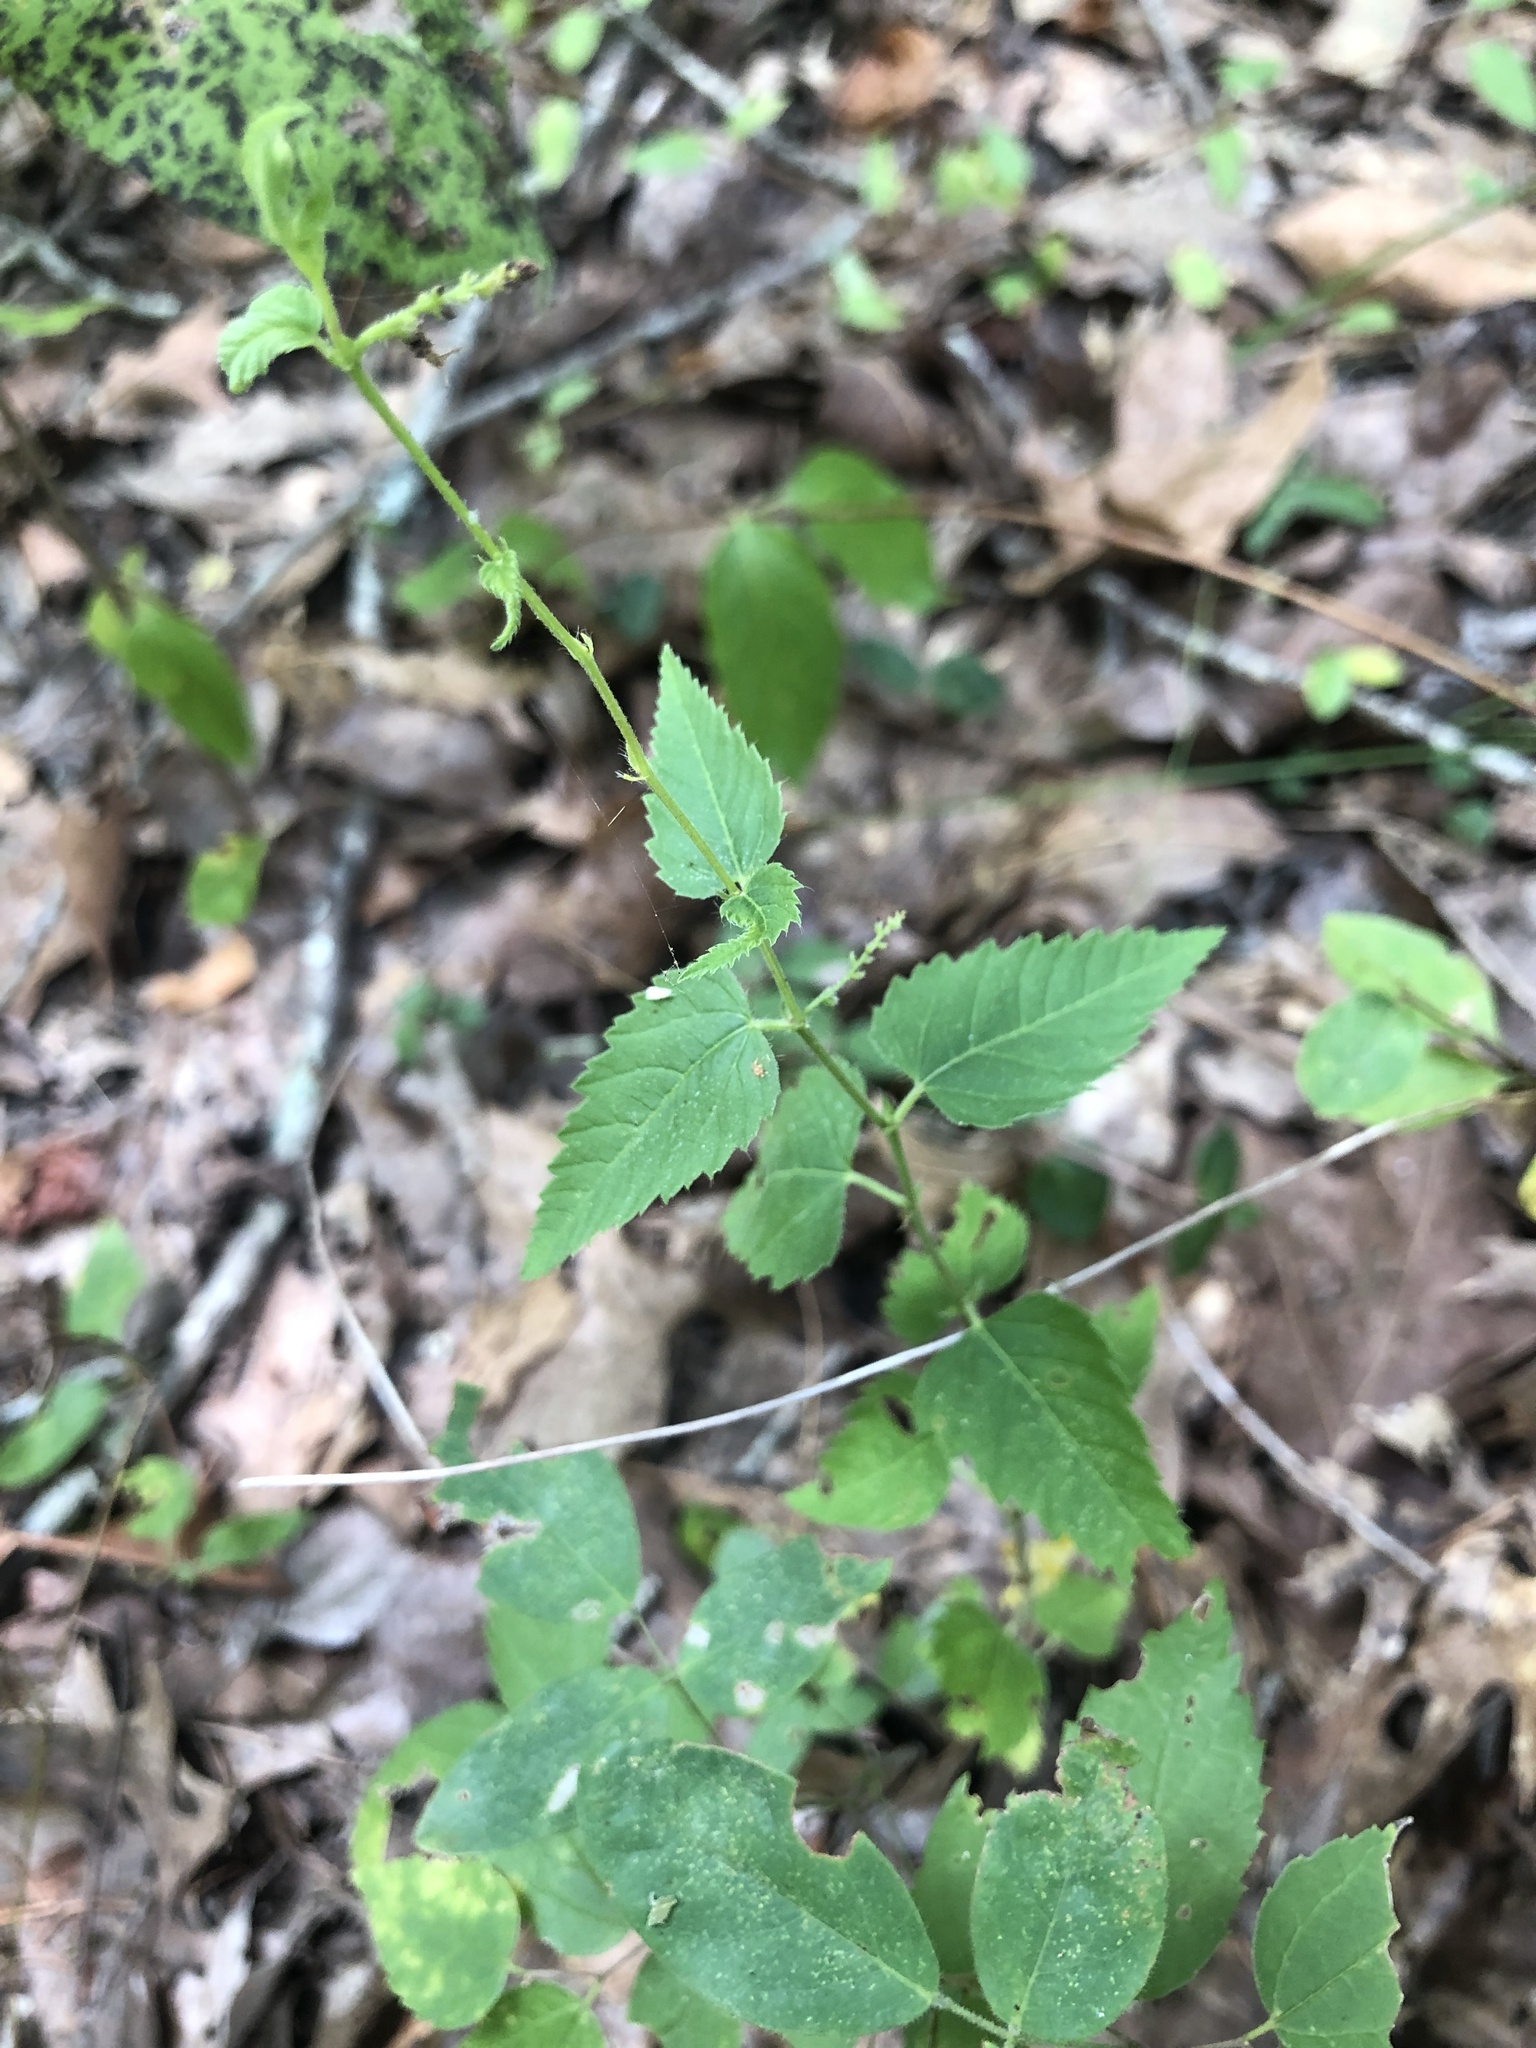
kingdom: Plantae
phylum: Tracheophyta
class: Magnoliopsida
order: Malpighiales
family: Euphorbiaceae
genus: Tragia
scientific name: Tragia urticifolia
